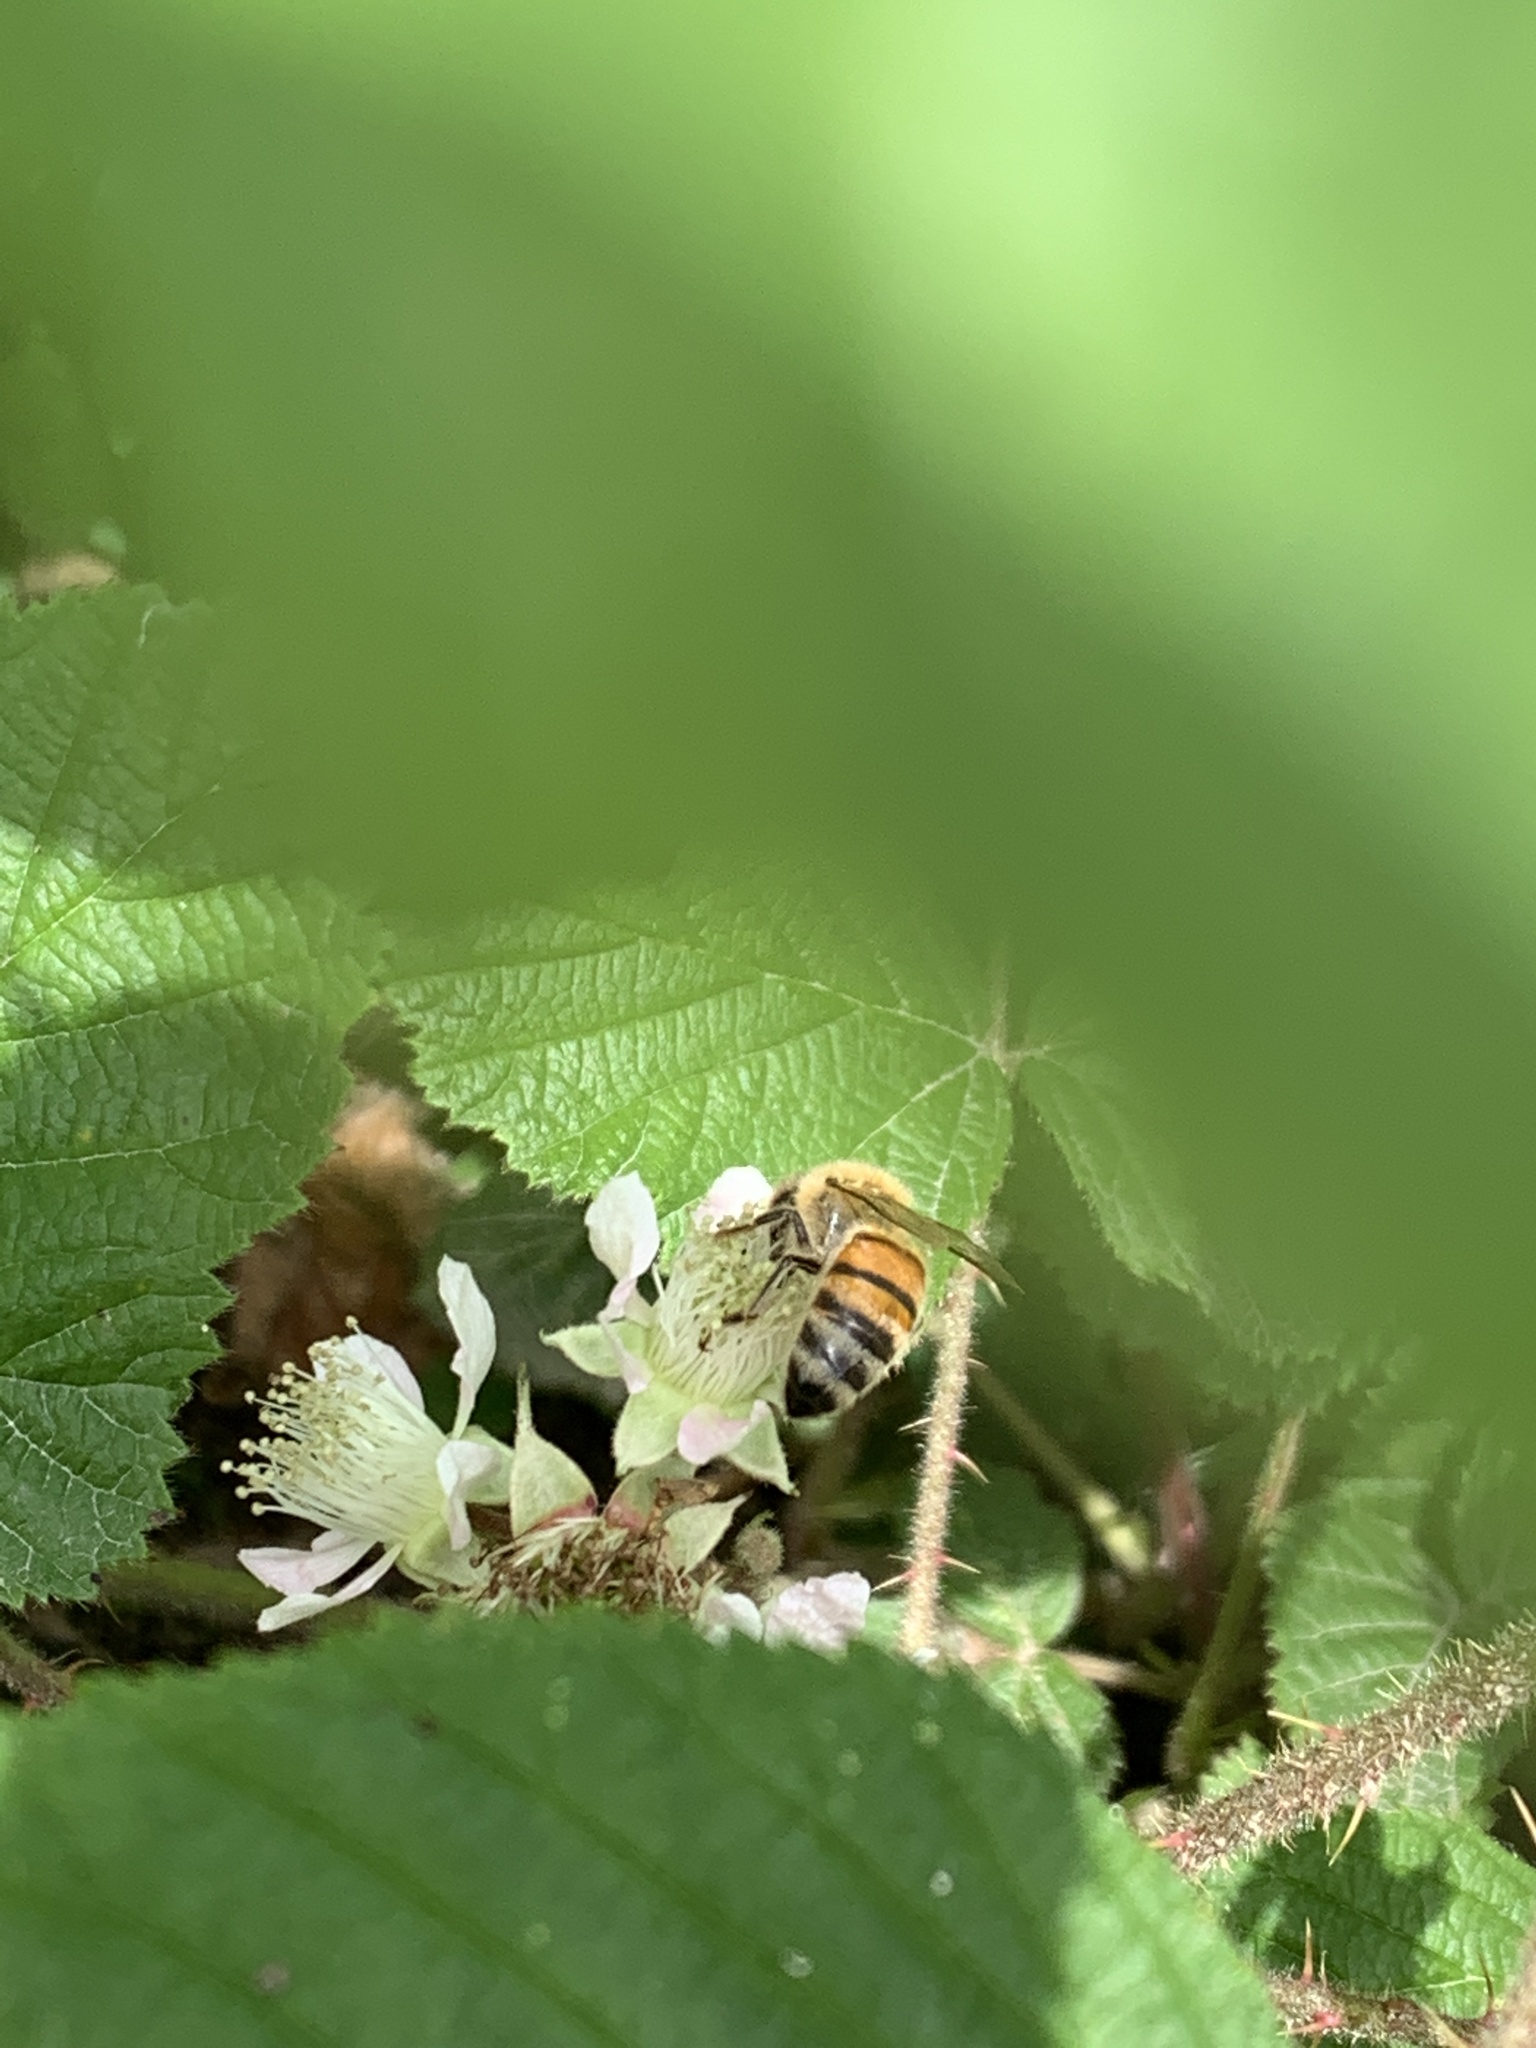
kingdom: Animalia
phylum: Arthropoda
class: Insecta
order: Hymenoptera
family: Apidae
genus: Apis
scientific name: Apis mellifera
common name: Honey bee
